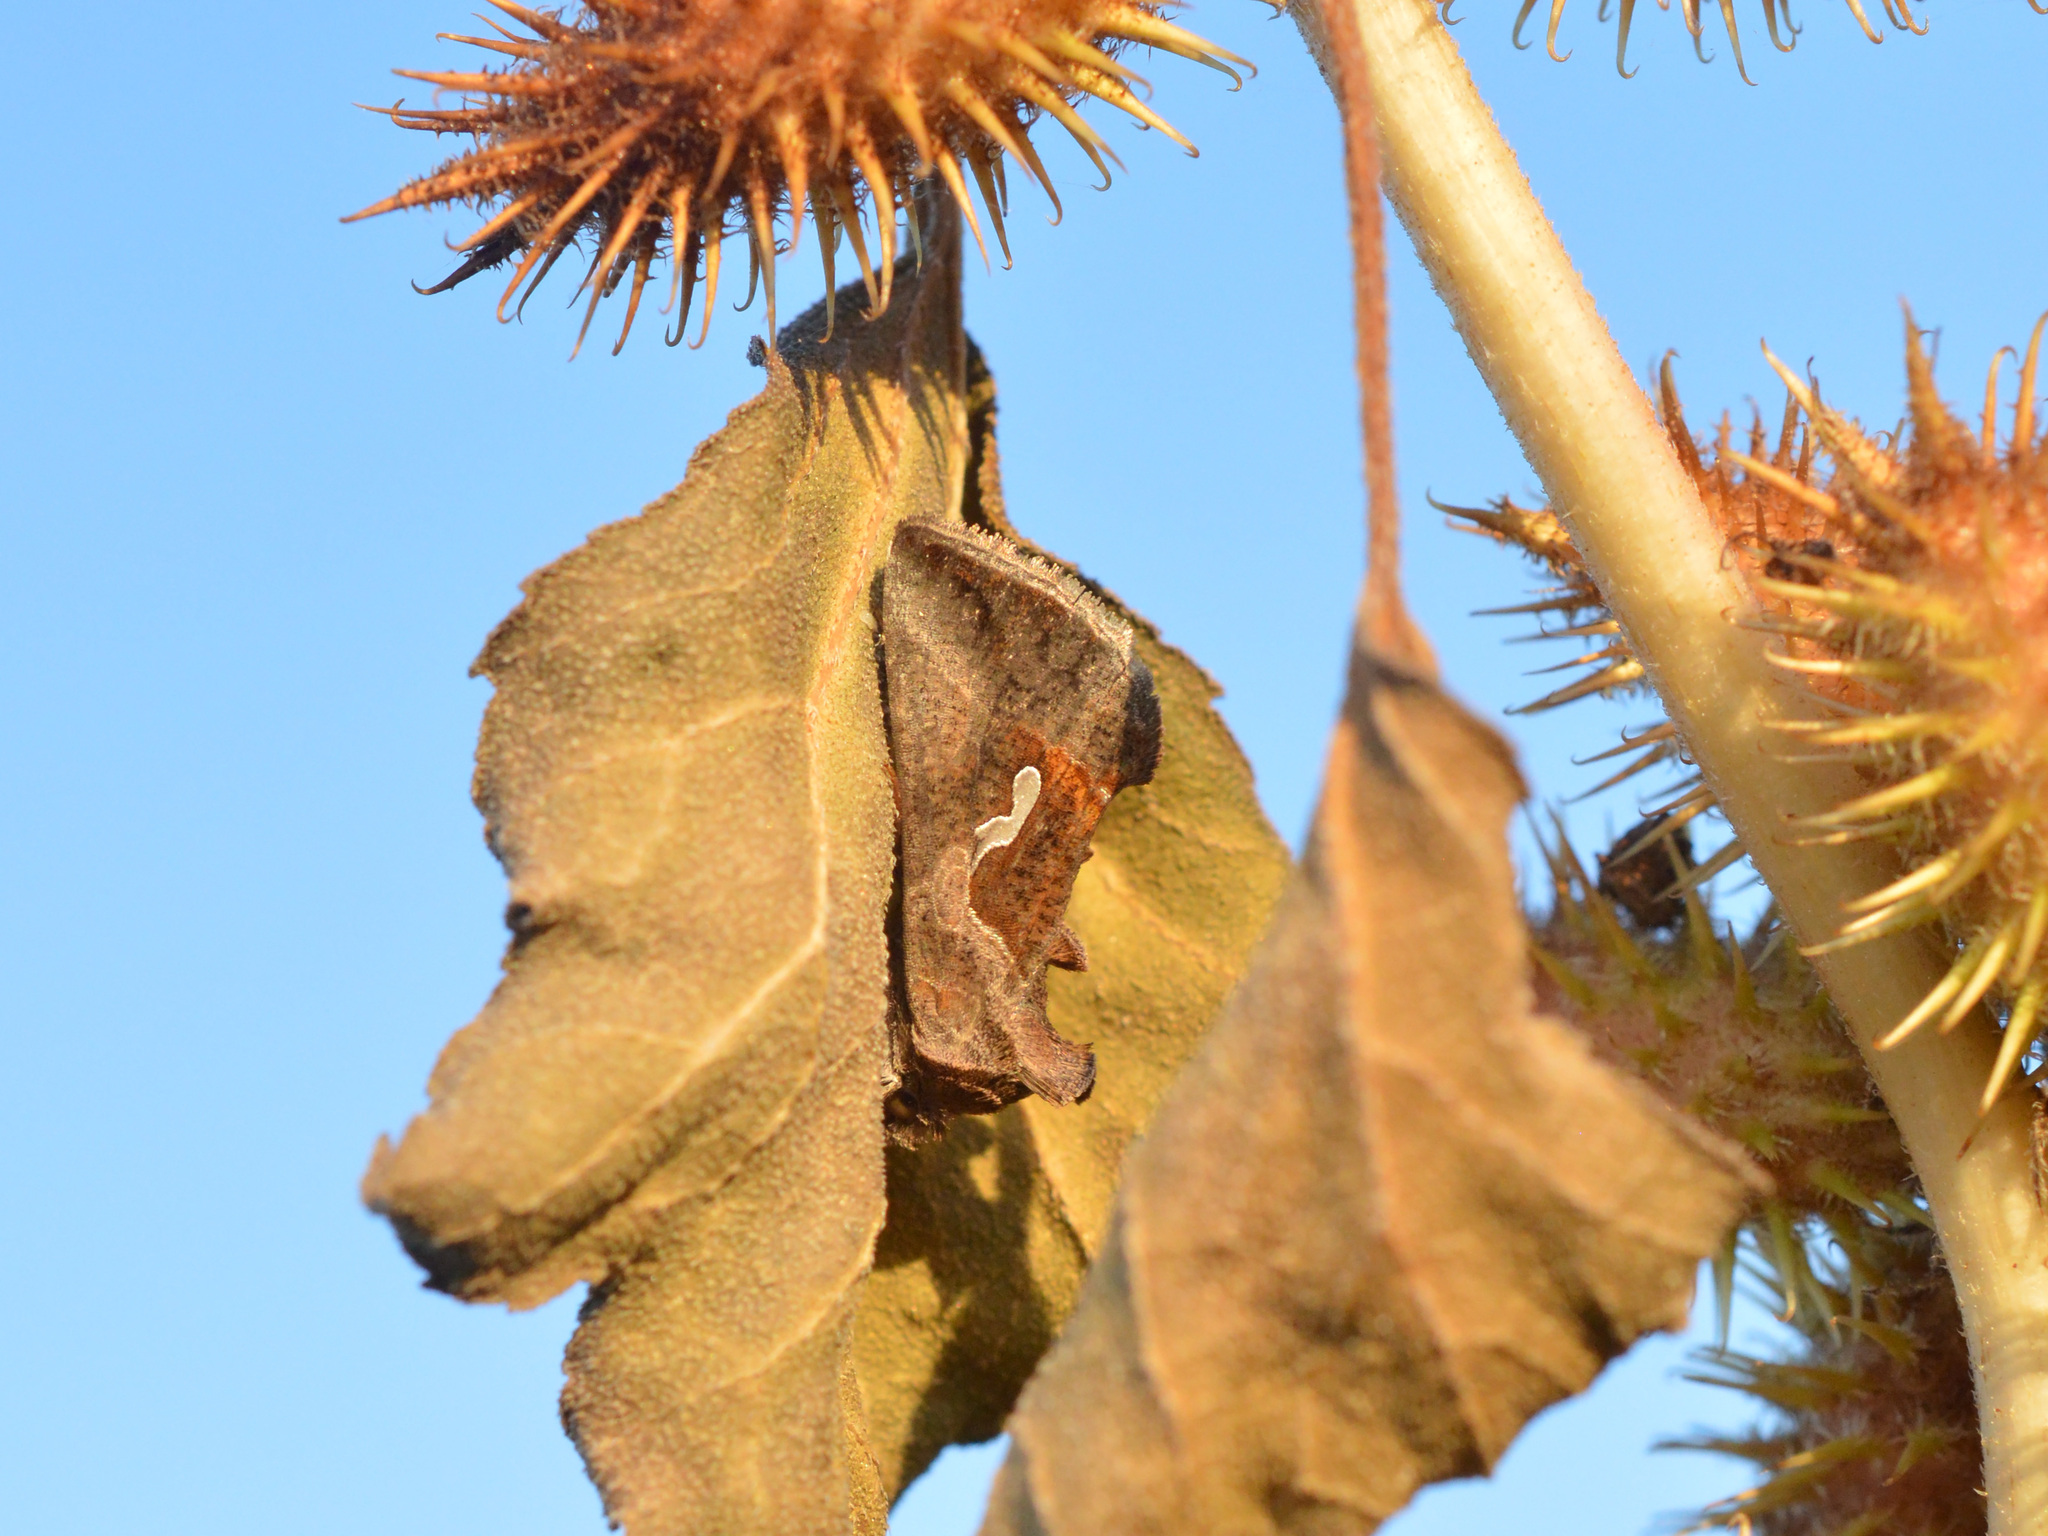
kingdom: Animalia
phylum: Arthropoda
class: Insecta
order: Lepidoptera
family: Noctuidae
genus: Macdunnoughia
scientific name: Macdunnoughia confusa
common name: Dewick's plusia
